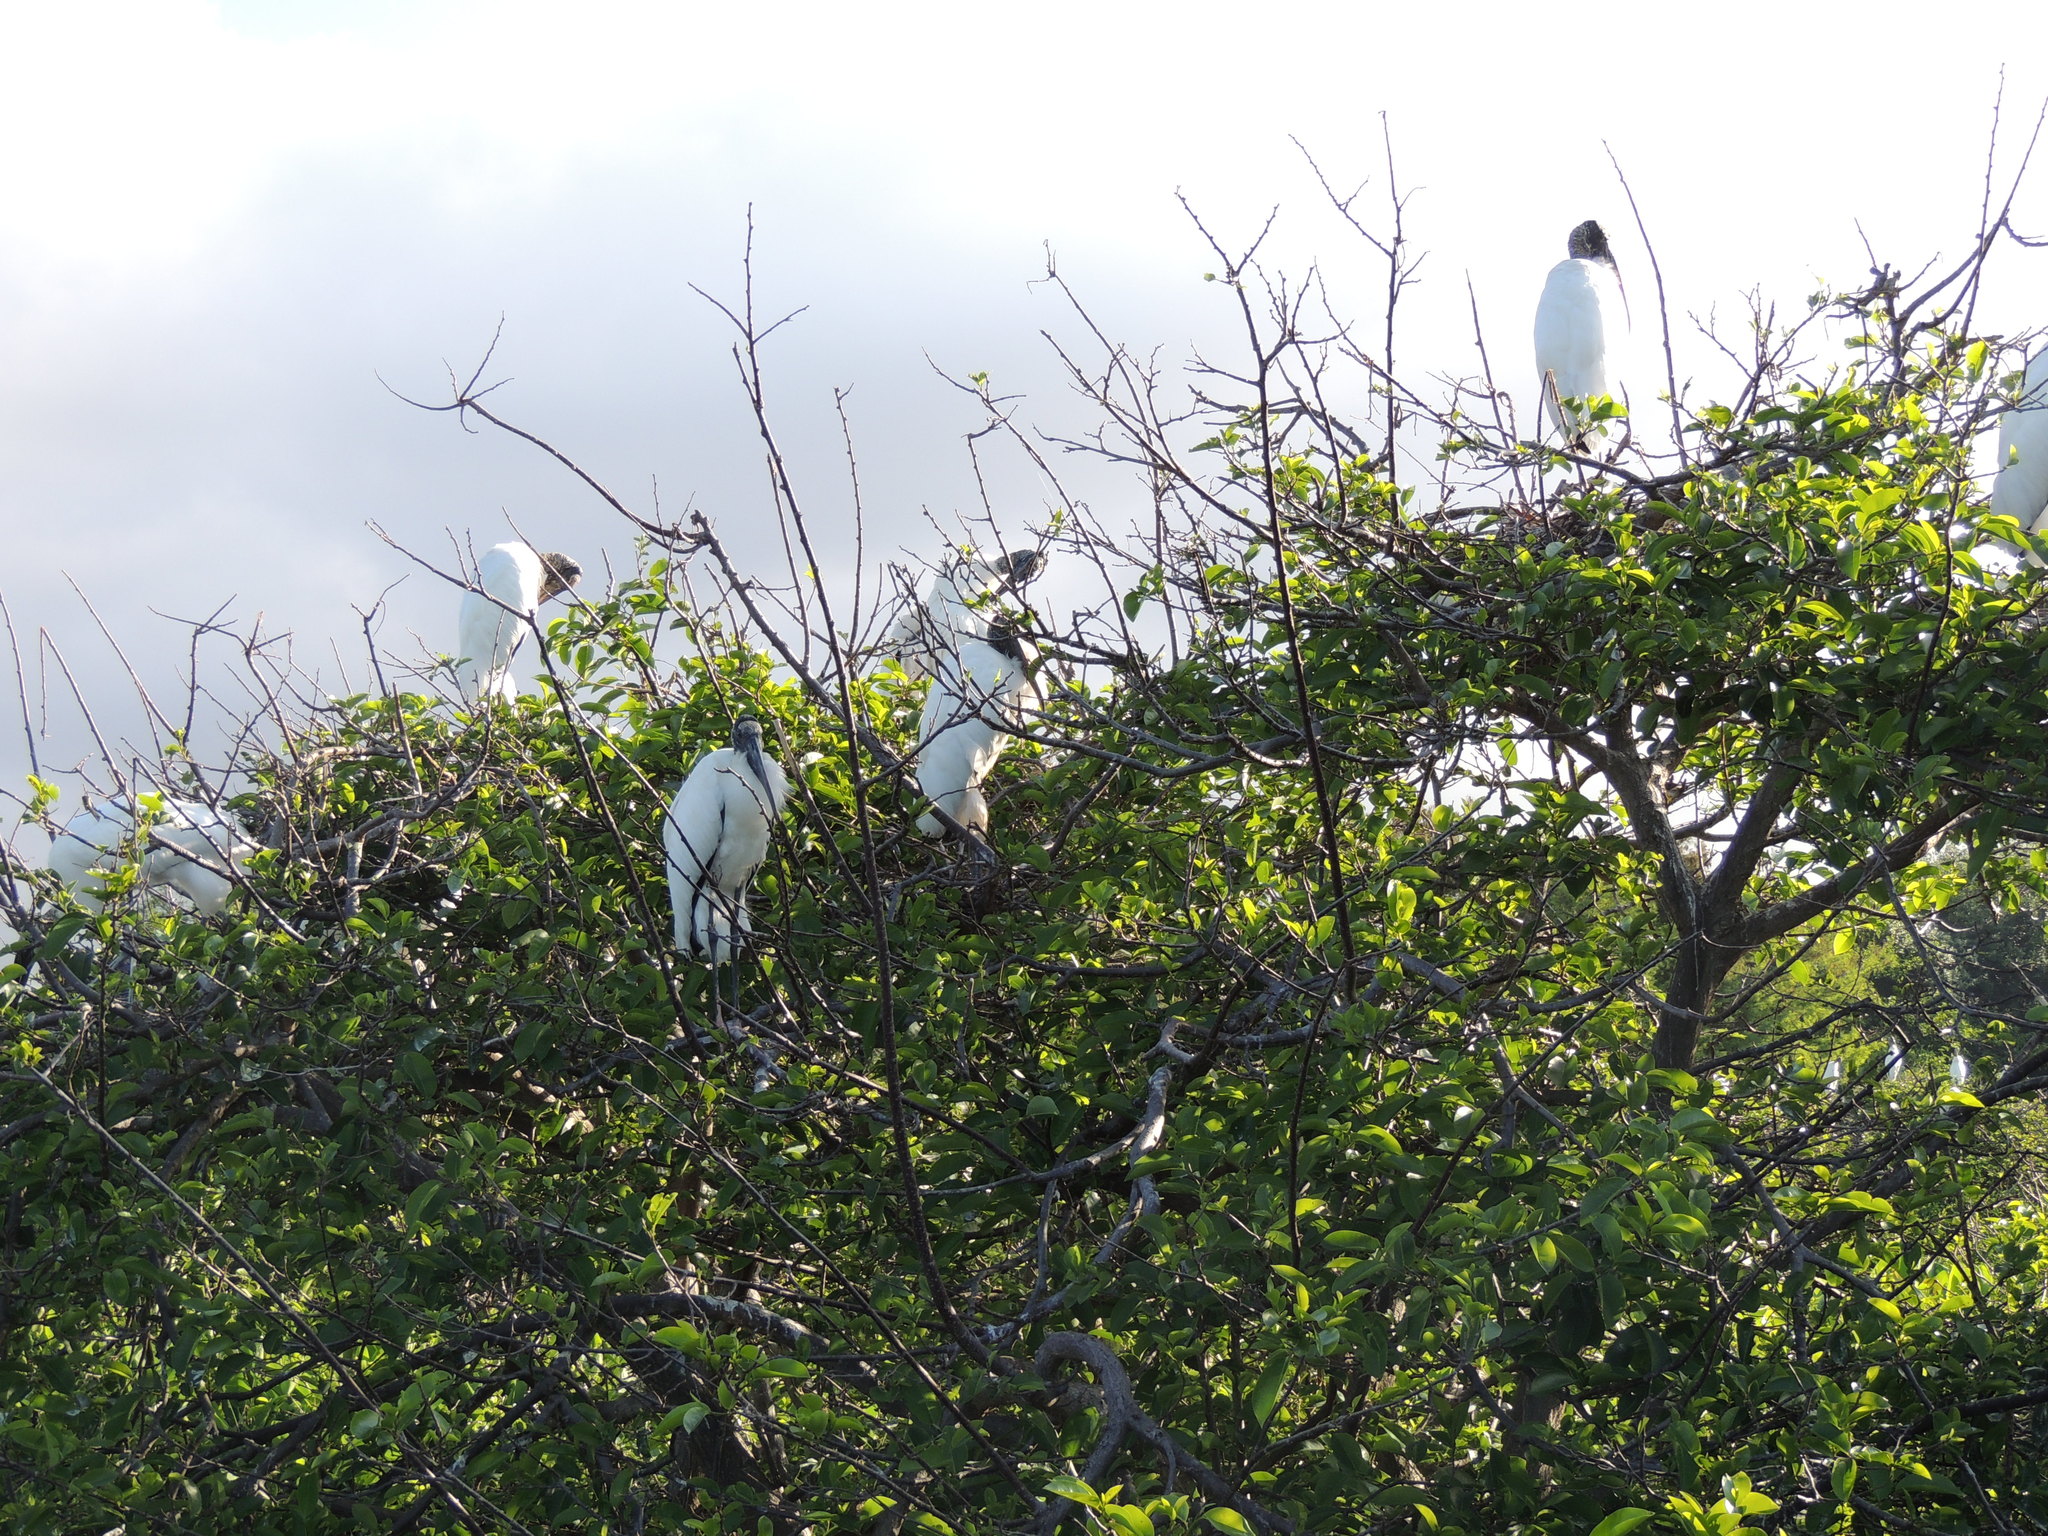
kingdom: Animalia
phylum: Chordata
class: Aves
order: Ciconiiformes
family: Ciconiidae
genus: Mycteria
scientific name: Mycteria americana
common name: Wood stork
